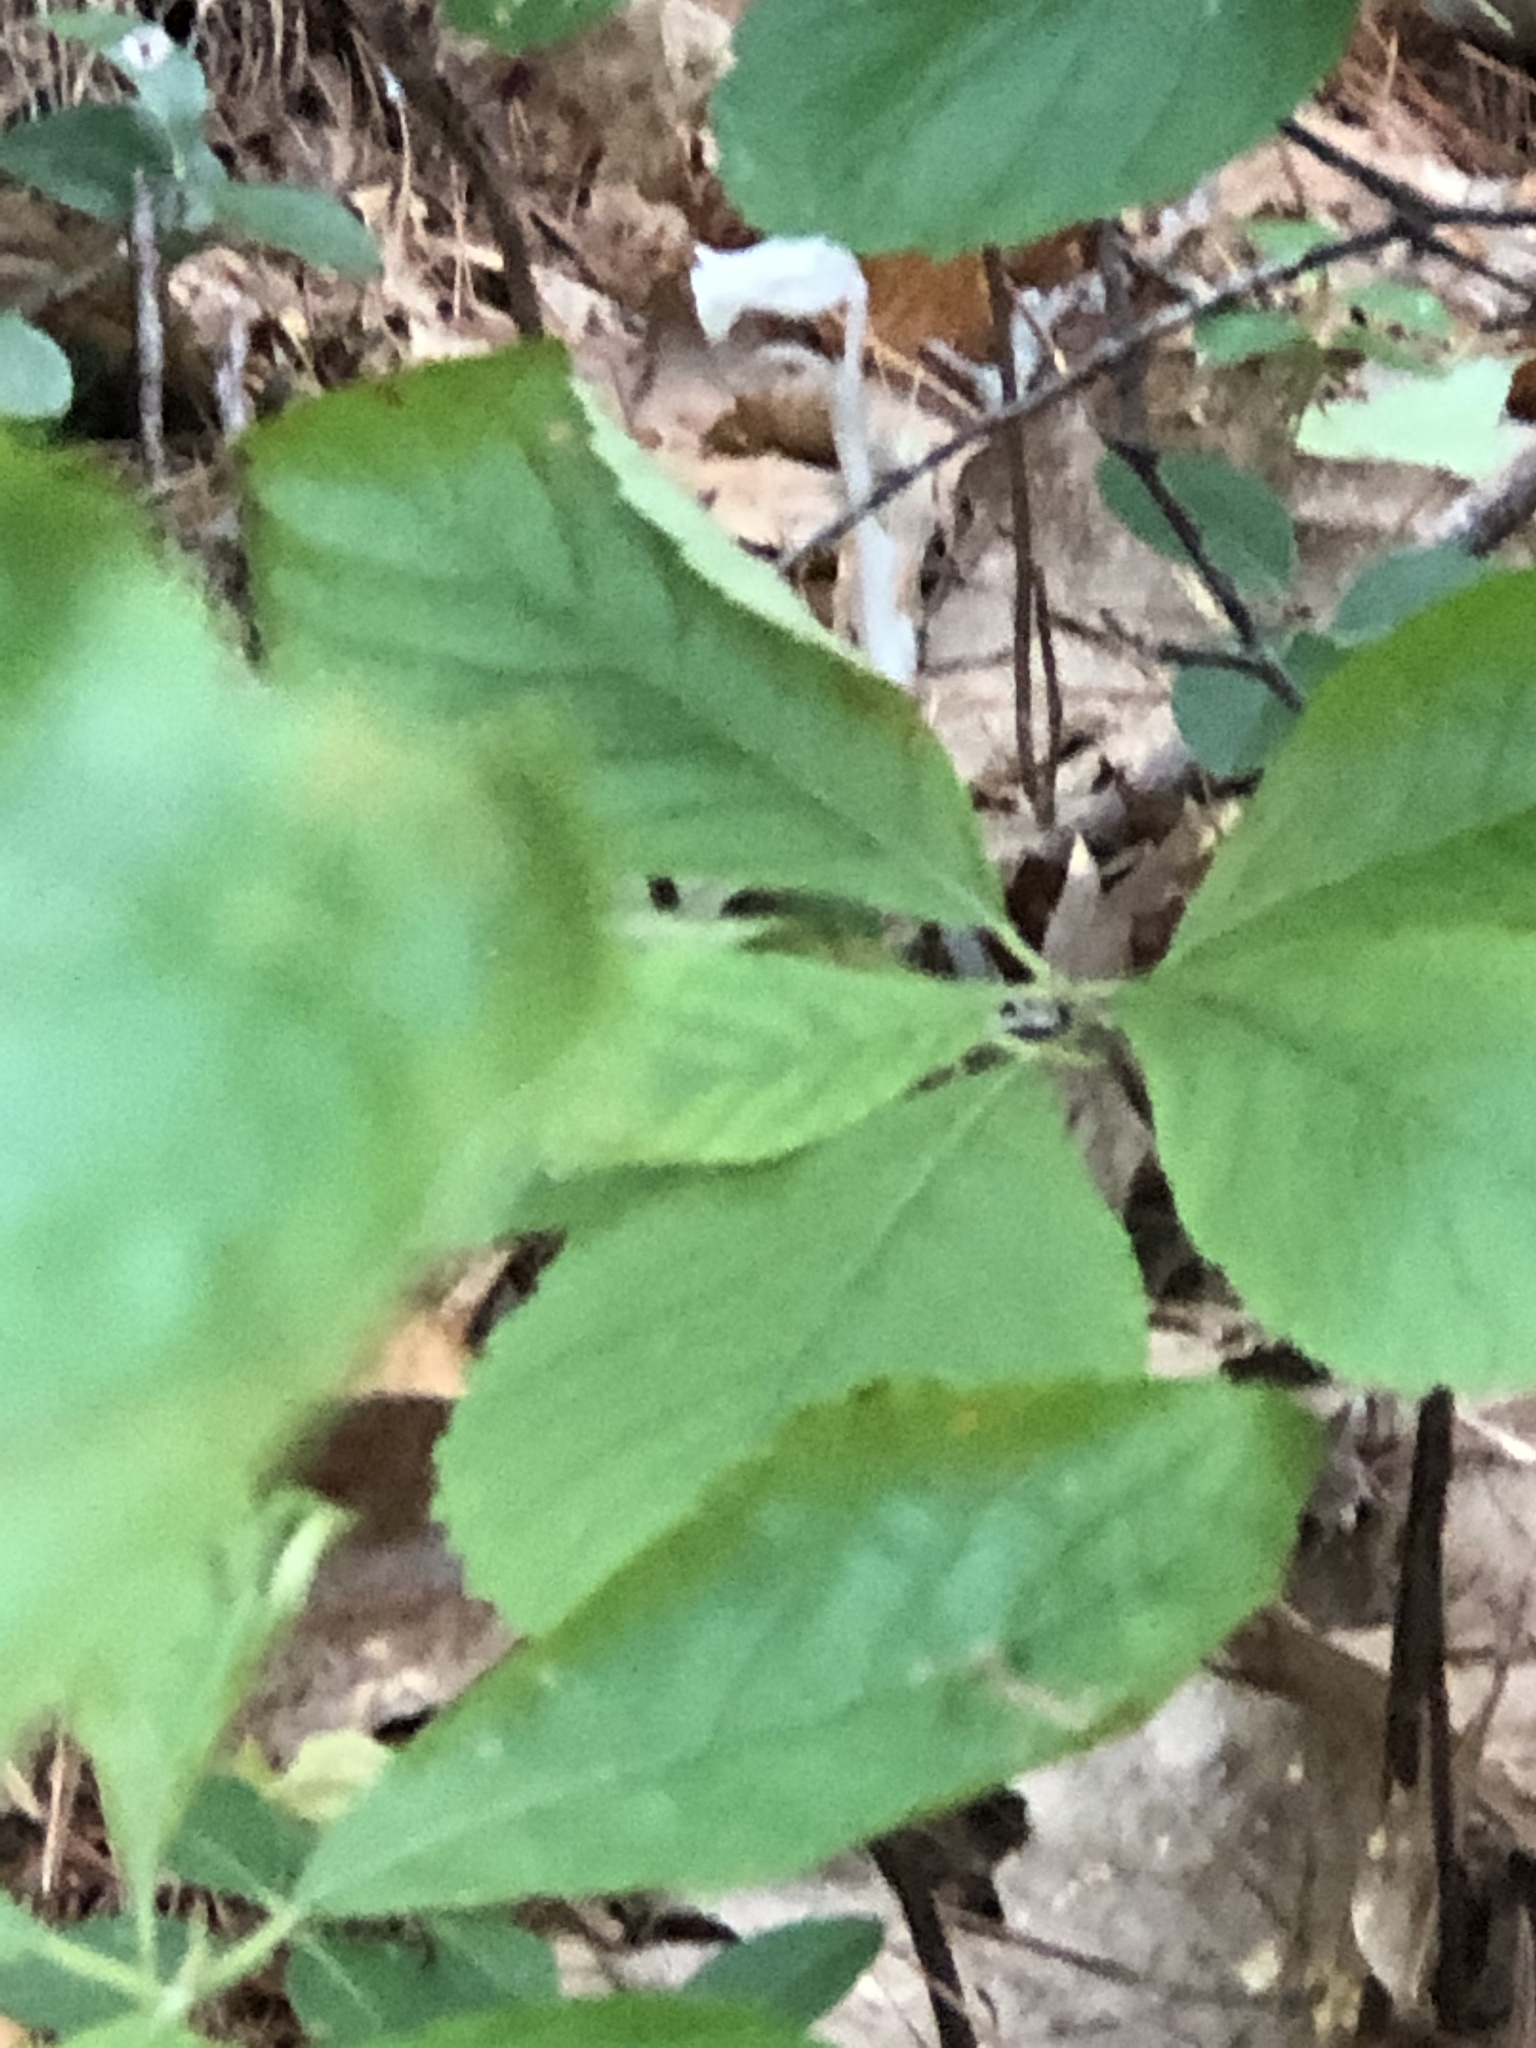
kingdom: Plantae
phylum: Tracheophyta
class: Magnoliopsida
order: Ericales
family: Ericaceae
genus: Monotropa
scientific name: Monotropa uniflora
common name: Convulsion root
